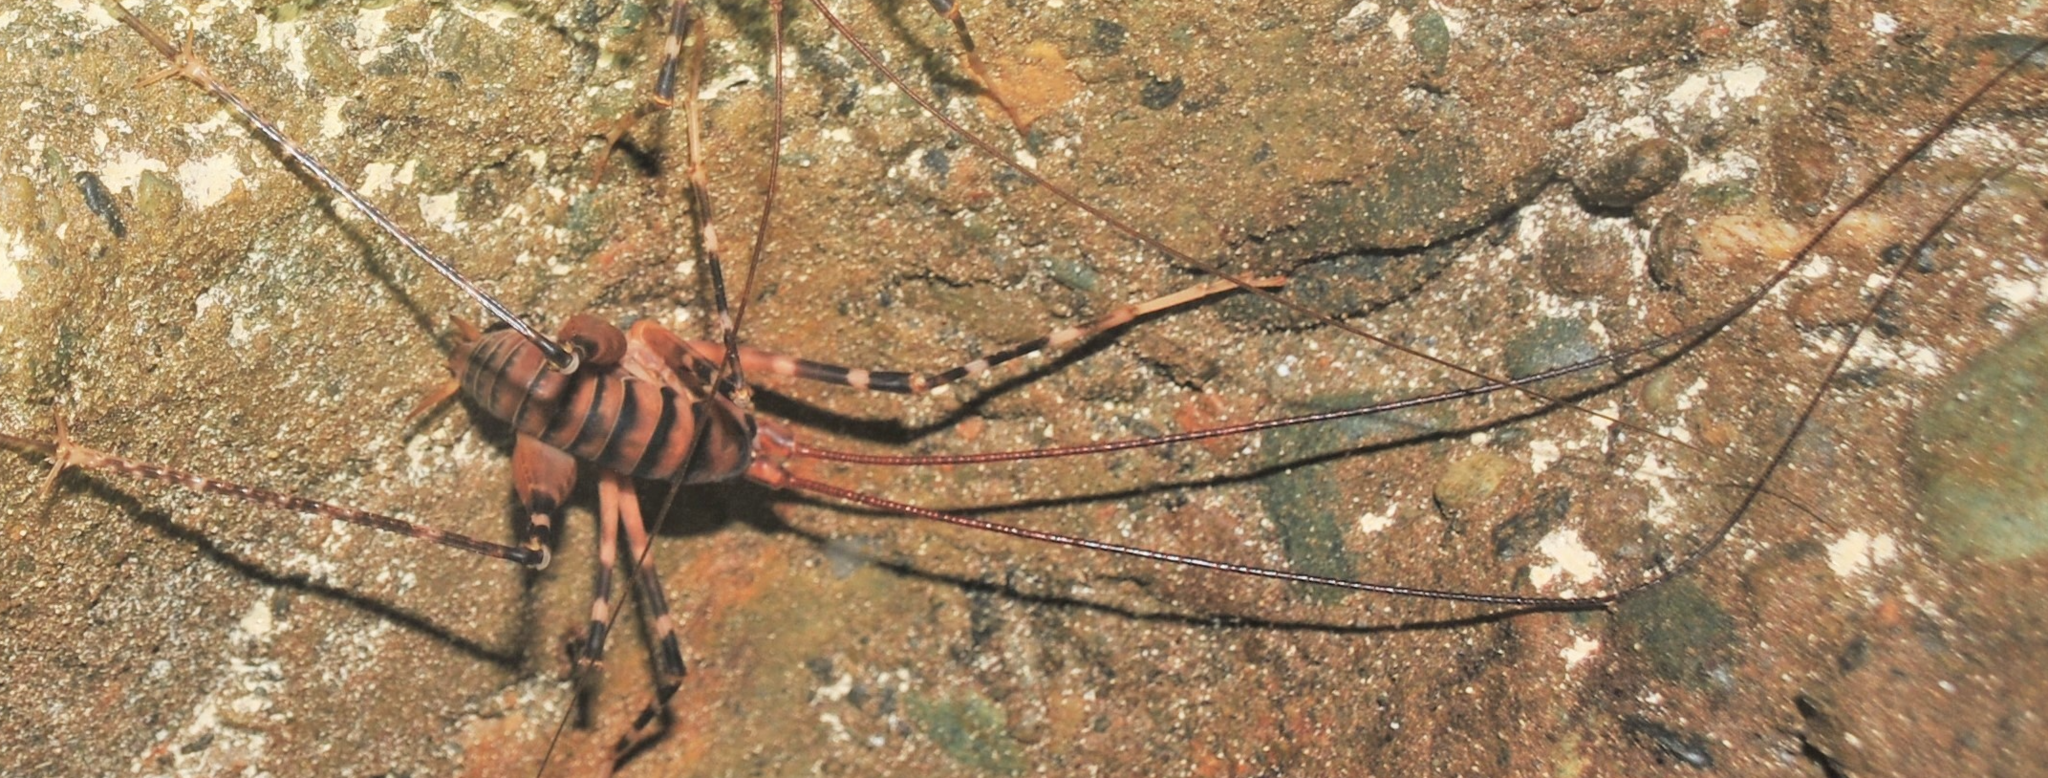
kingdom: Animalia
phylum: Arthropoda
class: Insecta
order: Orthoptera
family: Rhaphidophoridae
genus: Pachyrhamma
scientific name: Pachyrhamma edwardsii
